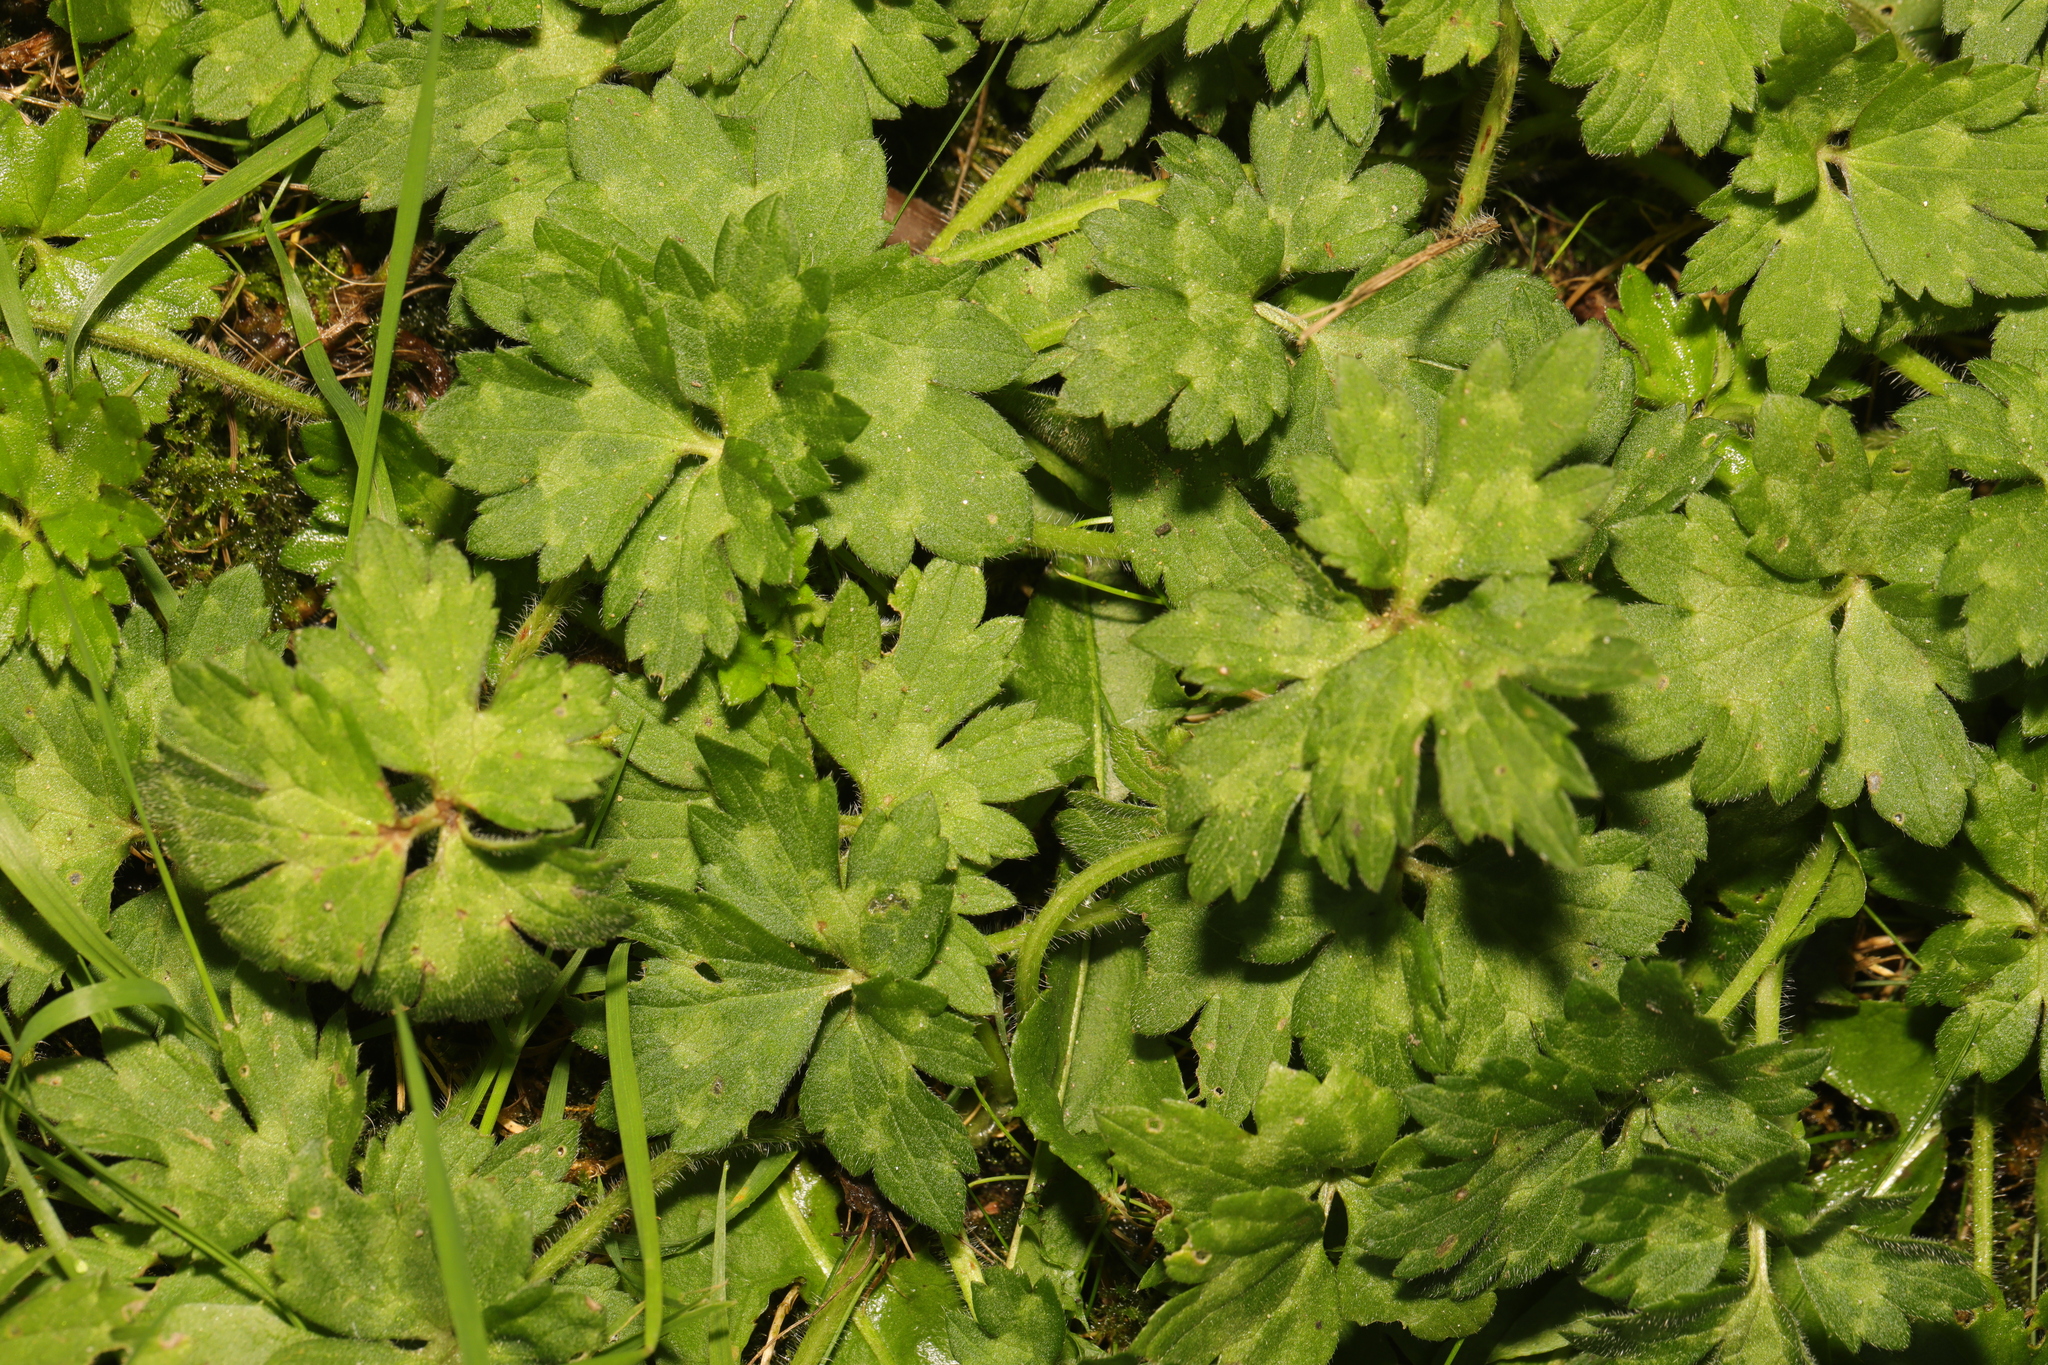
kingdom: Plantae
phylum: Tracheophyta
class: Magnoliopsida
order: Ranunculales
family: Ranunculaceae
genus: Ranunculus
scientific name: Ranunculus repens
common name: Creeping buttercup
